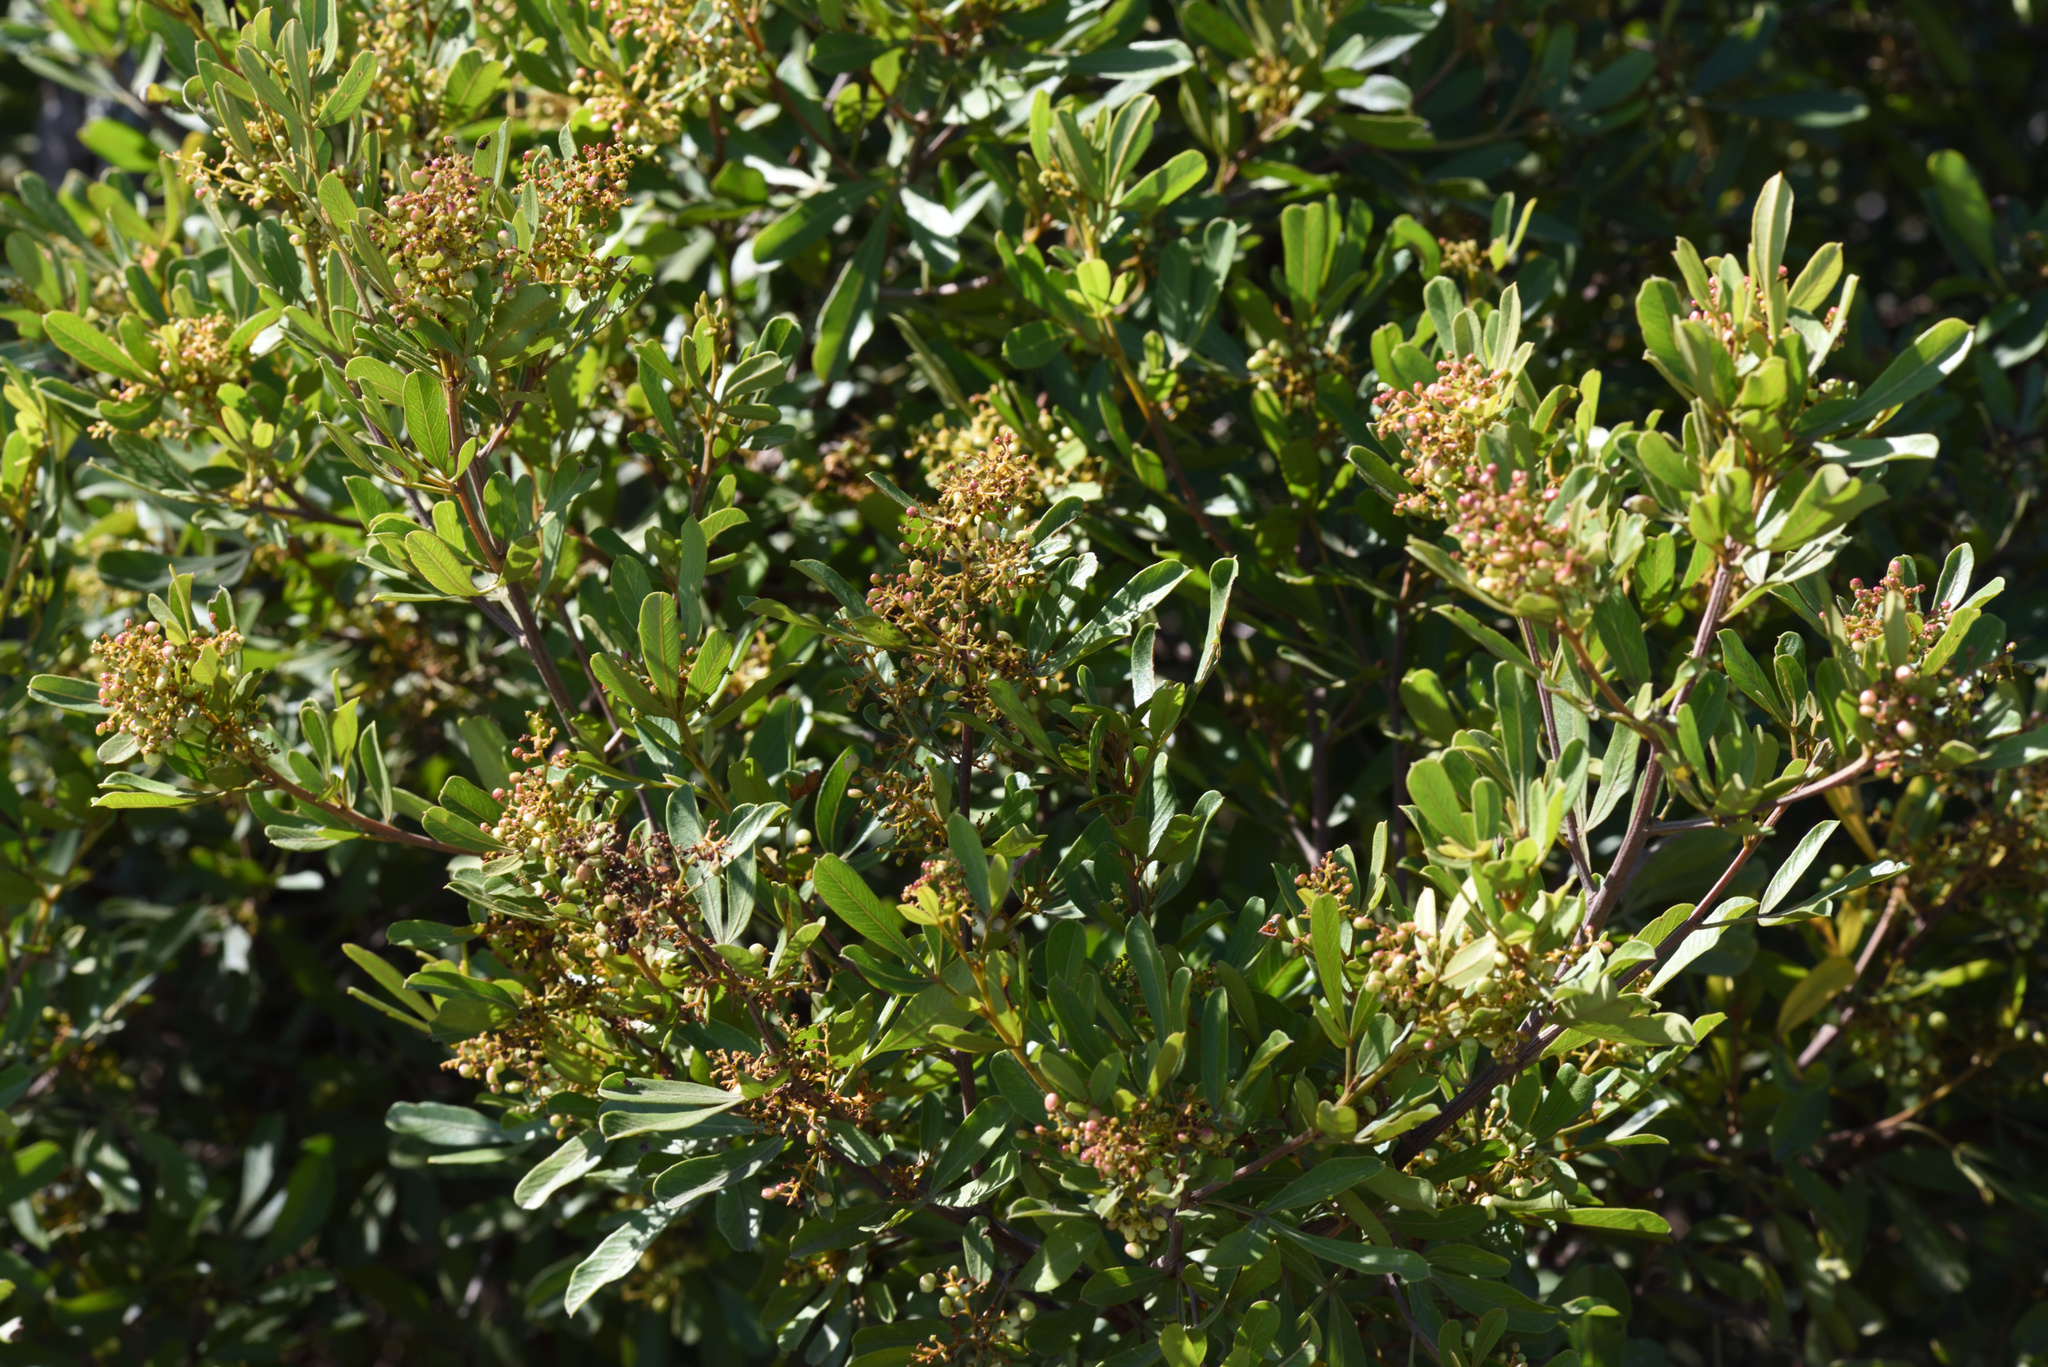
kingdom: Plantae
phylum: Tracheophyta
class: Magnoliopsida
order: Sapindales
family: Anacardiaceae
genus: Searsia
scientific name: Searsia pallens
